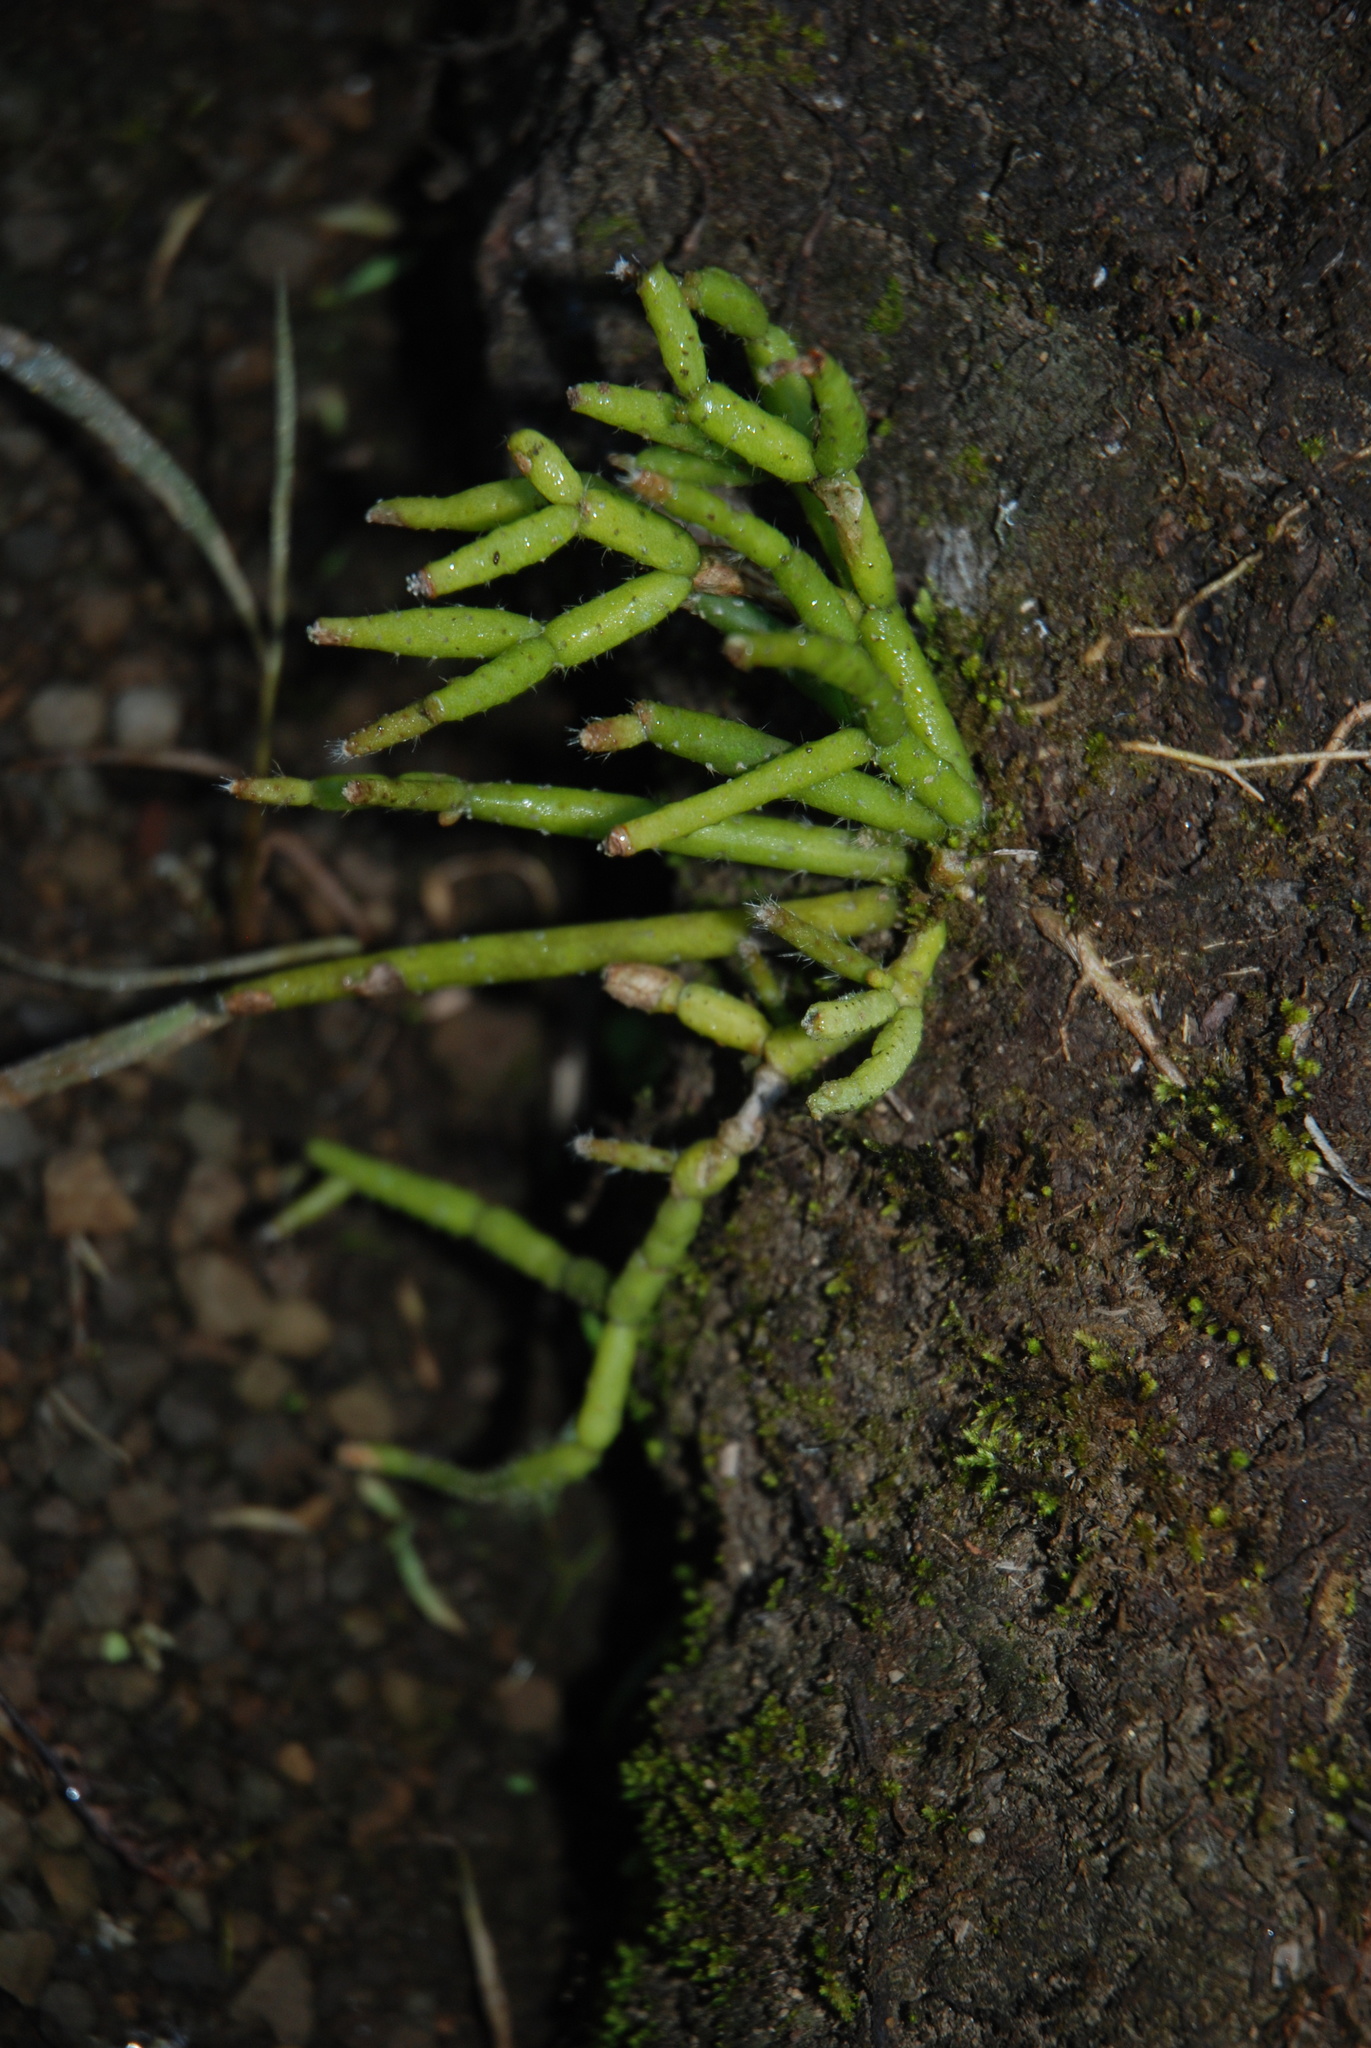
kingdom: Plantae
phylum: Tracheophyta
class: Magnoliopsida
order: Caryophyllales
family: Cactaceae
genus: Rhipsalis
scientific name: Rhipsalis
